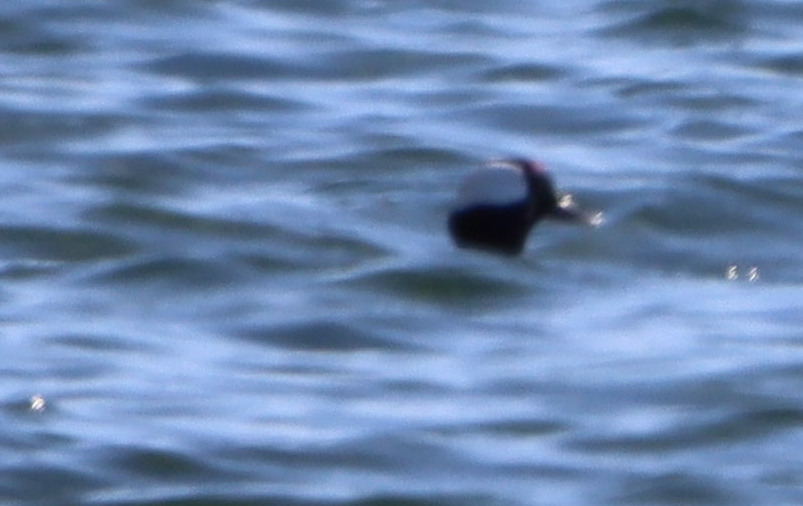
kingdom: Animalia
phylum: Chordata
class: Aves
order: Anseriformes
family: Anatidae
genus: Bucephala
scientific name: Bucephala albeola
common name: Bufflehead
